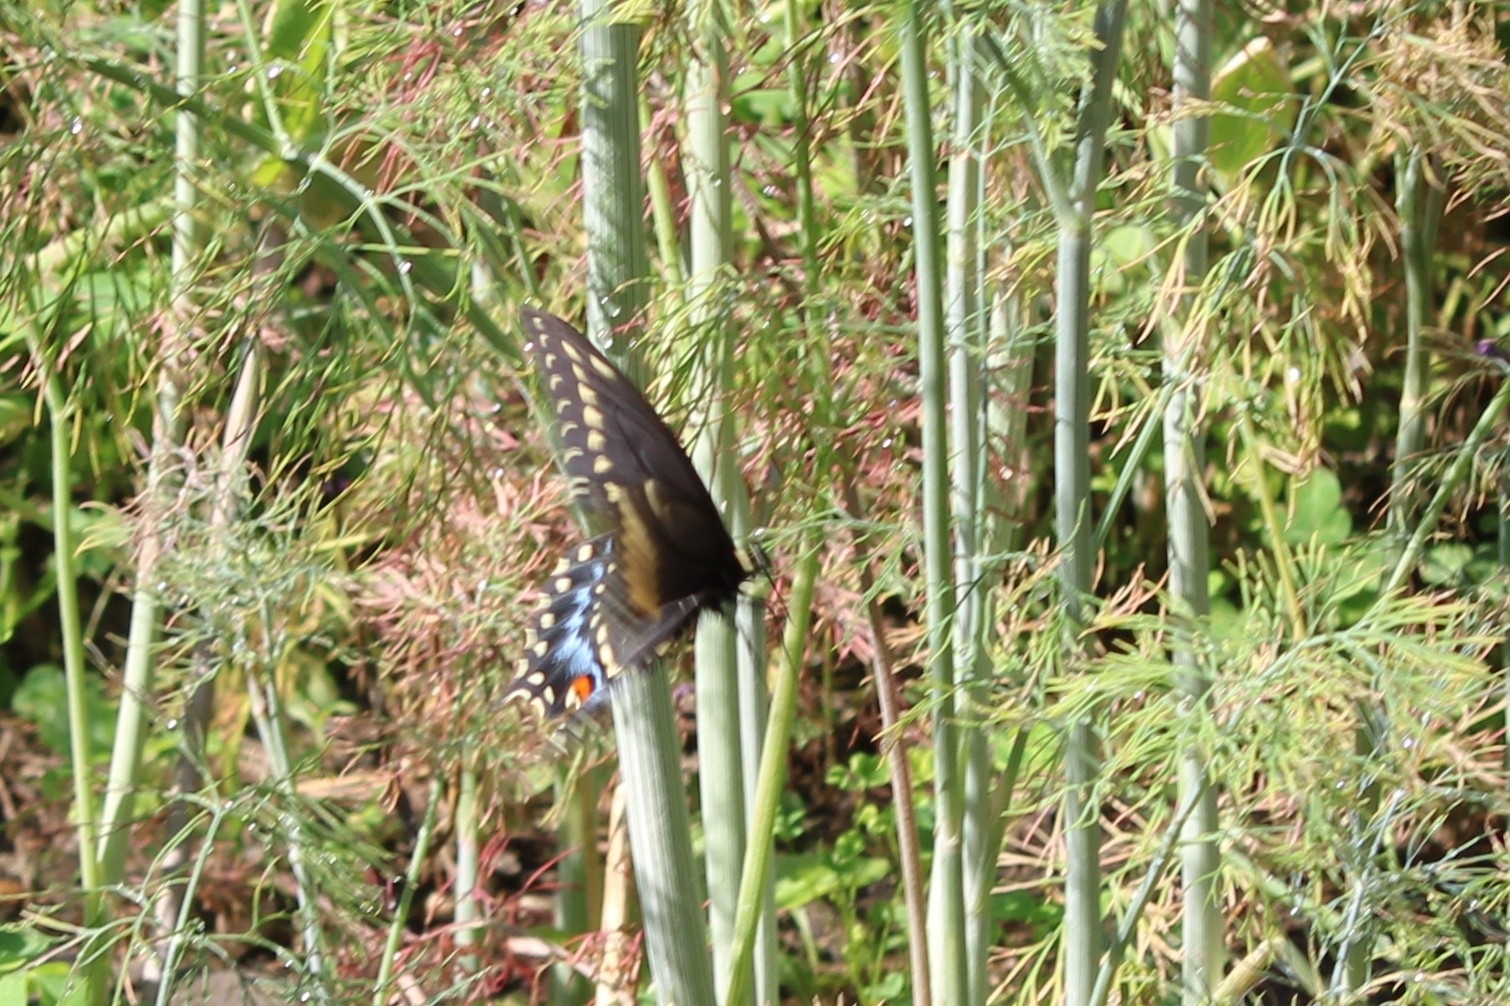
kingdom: Animalia
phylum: Arthropoda
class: Insecta
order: Lepidoptera
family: Papilionidae
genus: Papilio
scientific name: Papilio polyxenes
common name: Black swallowtail
